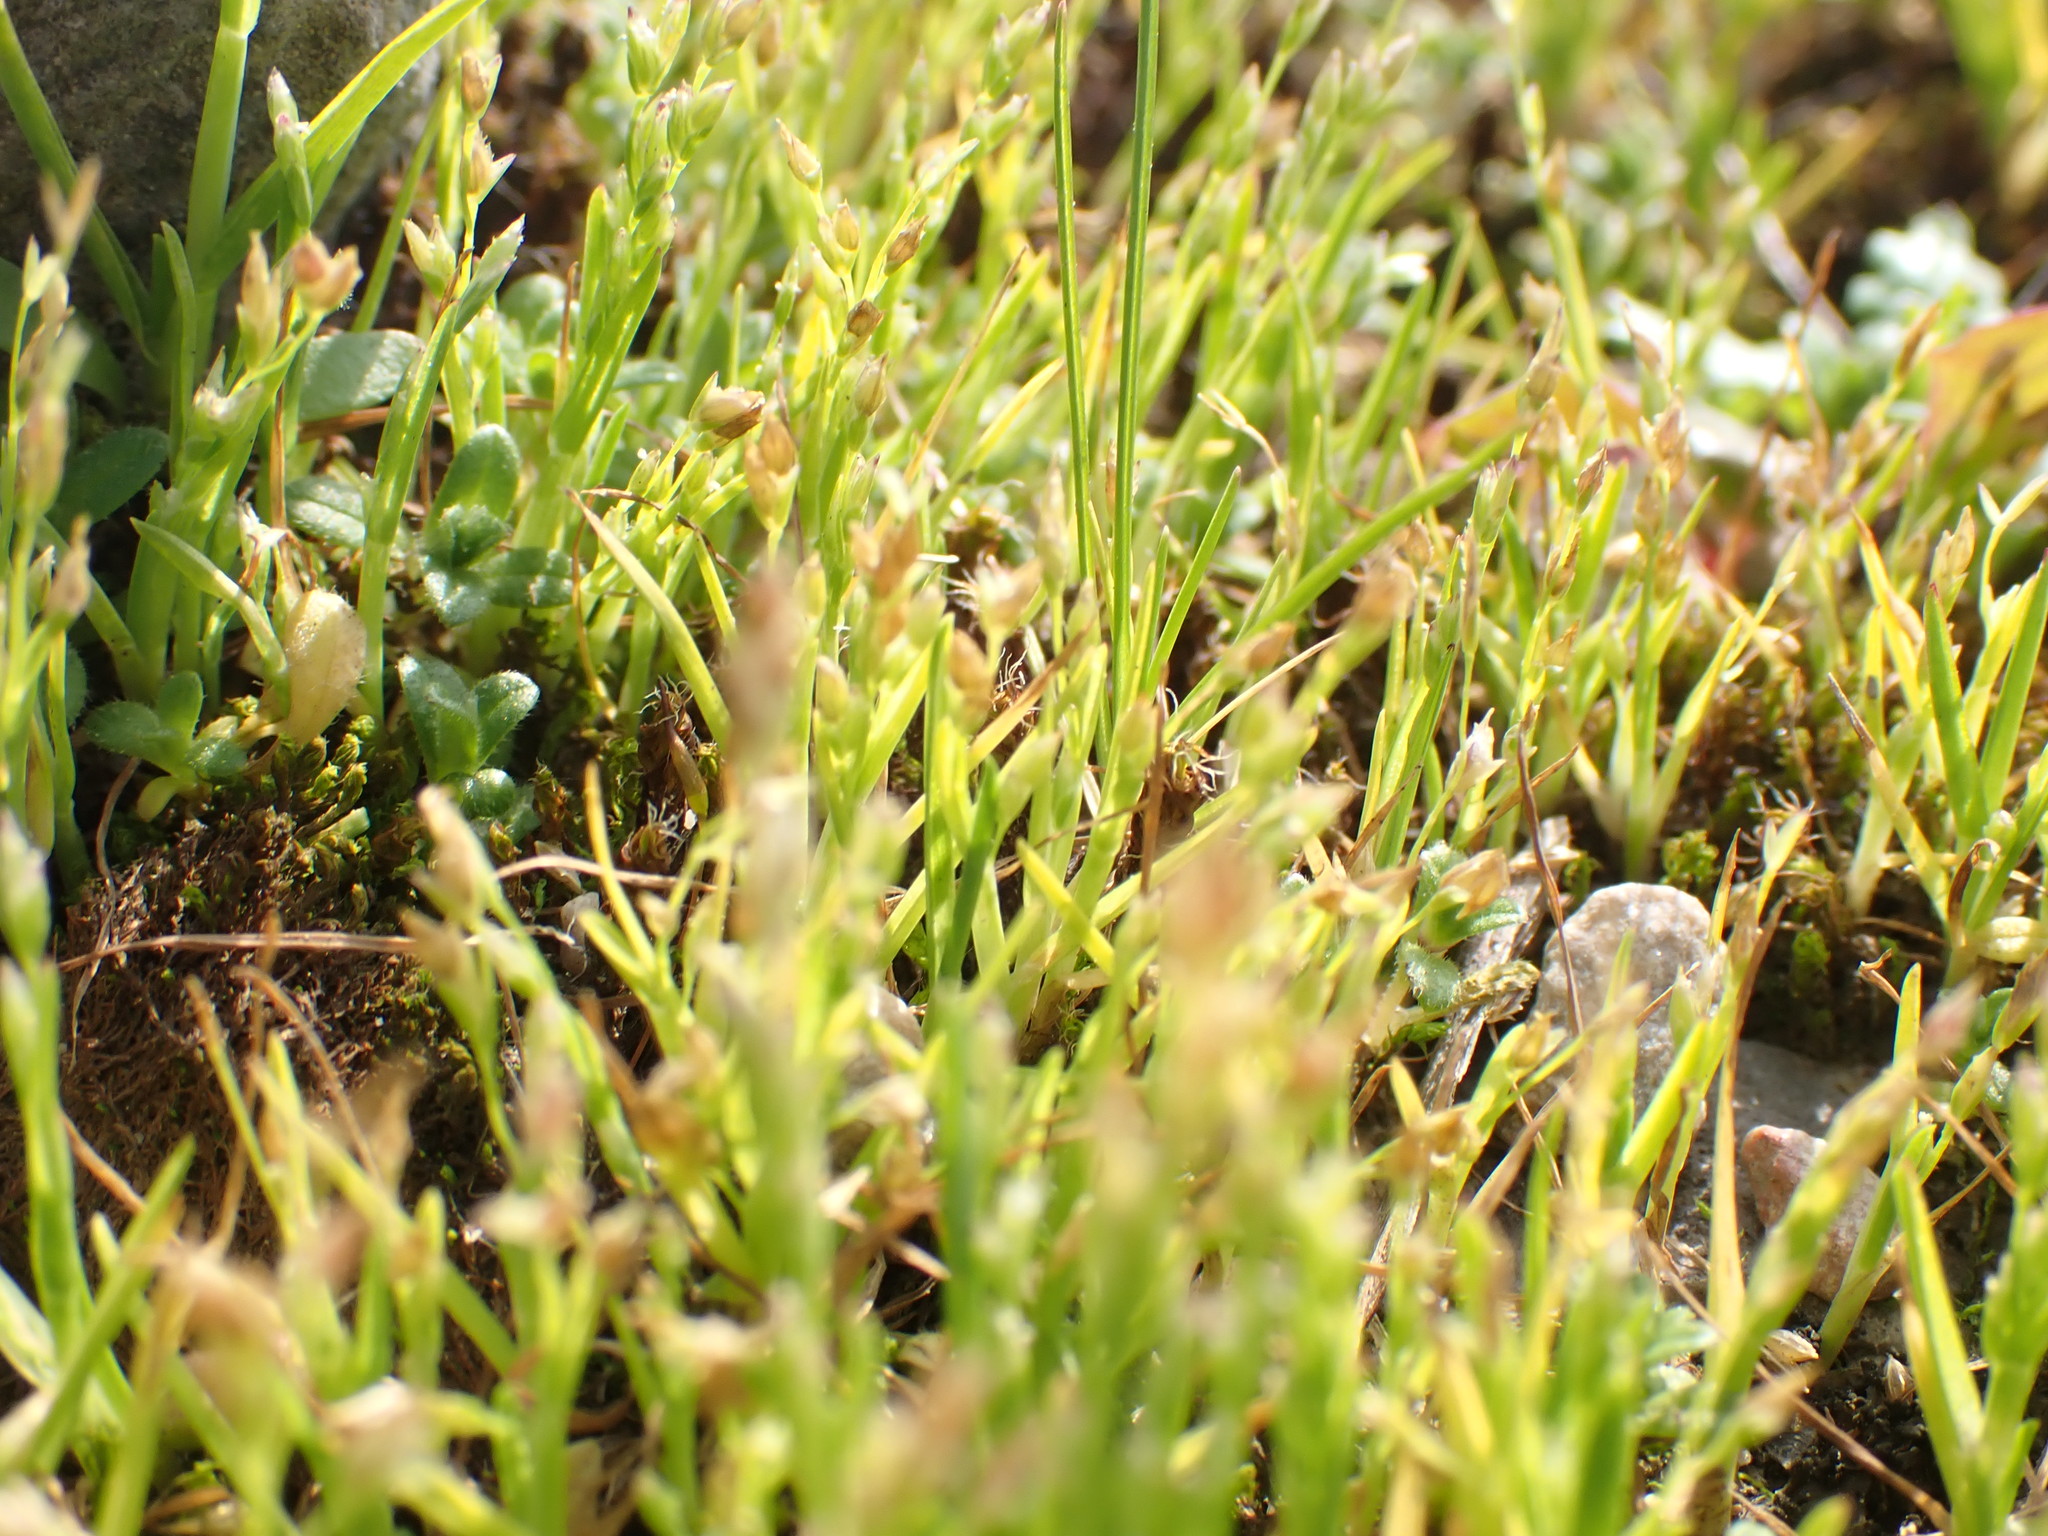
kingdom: Plantae
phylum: Tracheophyta
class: Liliopsida
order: Poales
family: Poaceae
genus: Poa
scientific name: Poa infirma
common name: Weak bluegrass
